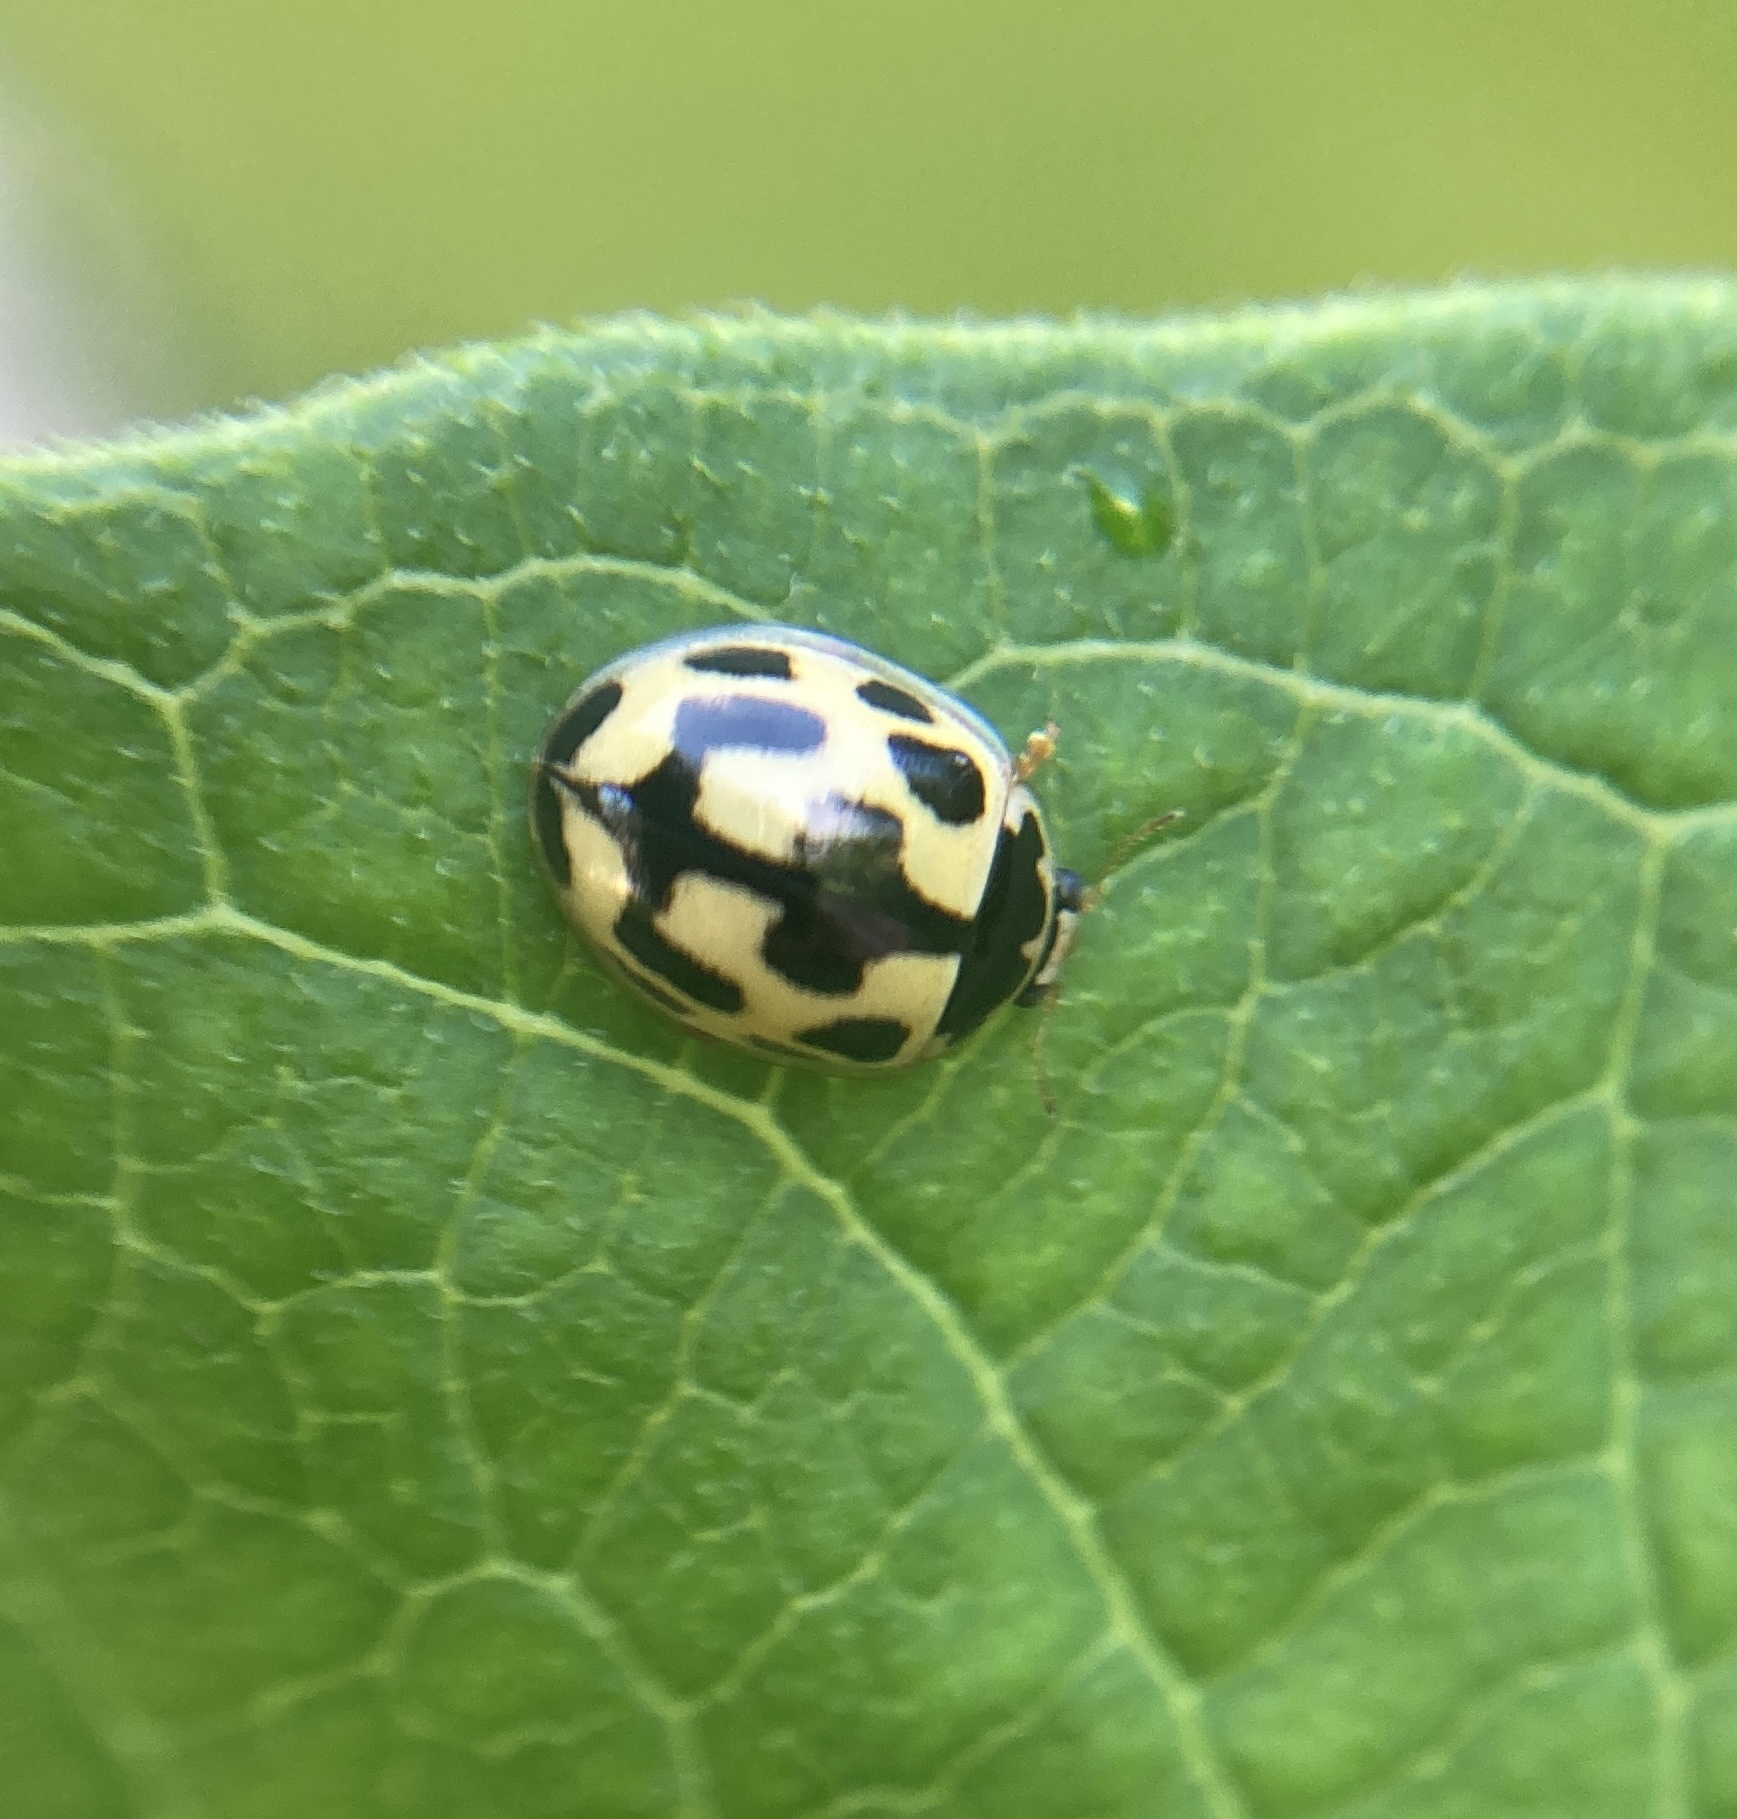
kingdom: Animalia
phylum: Arthropoda
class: Insecta
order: Coleoptera
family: Coccinellidae
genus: Propylaea
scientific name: Propylaea quatuordecimpunctata
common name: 14-spotted ladybird beetle
